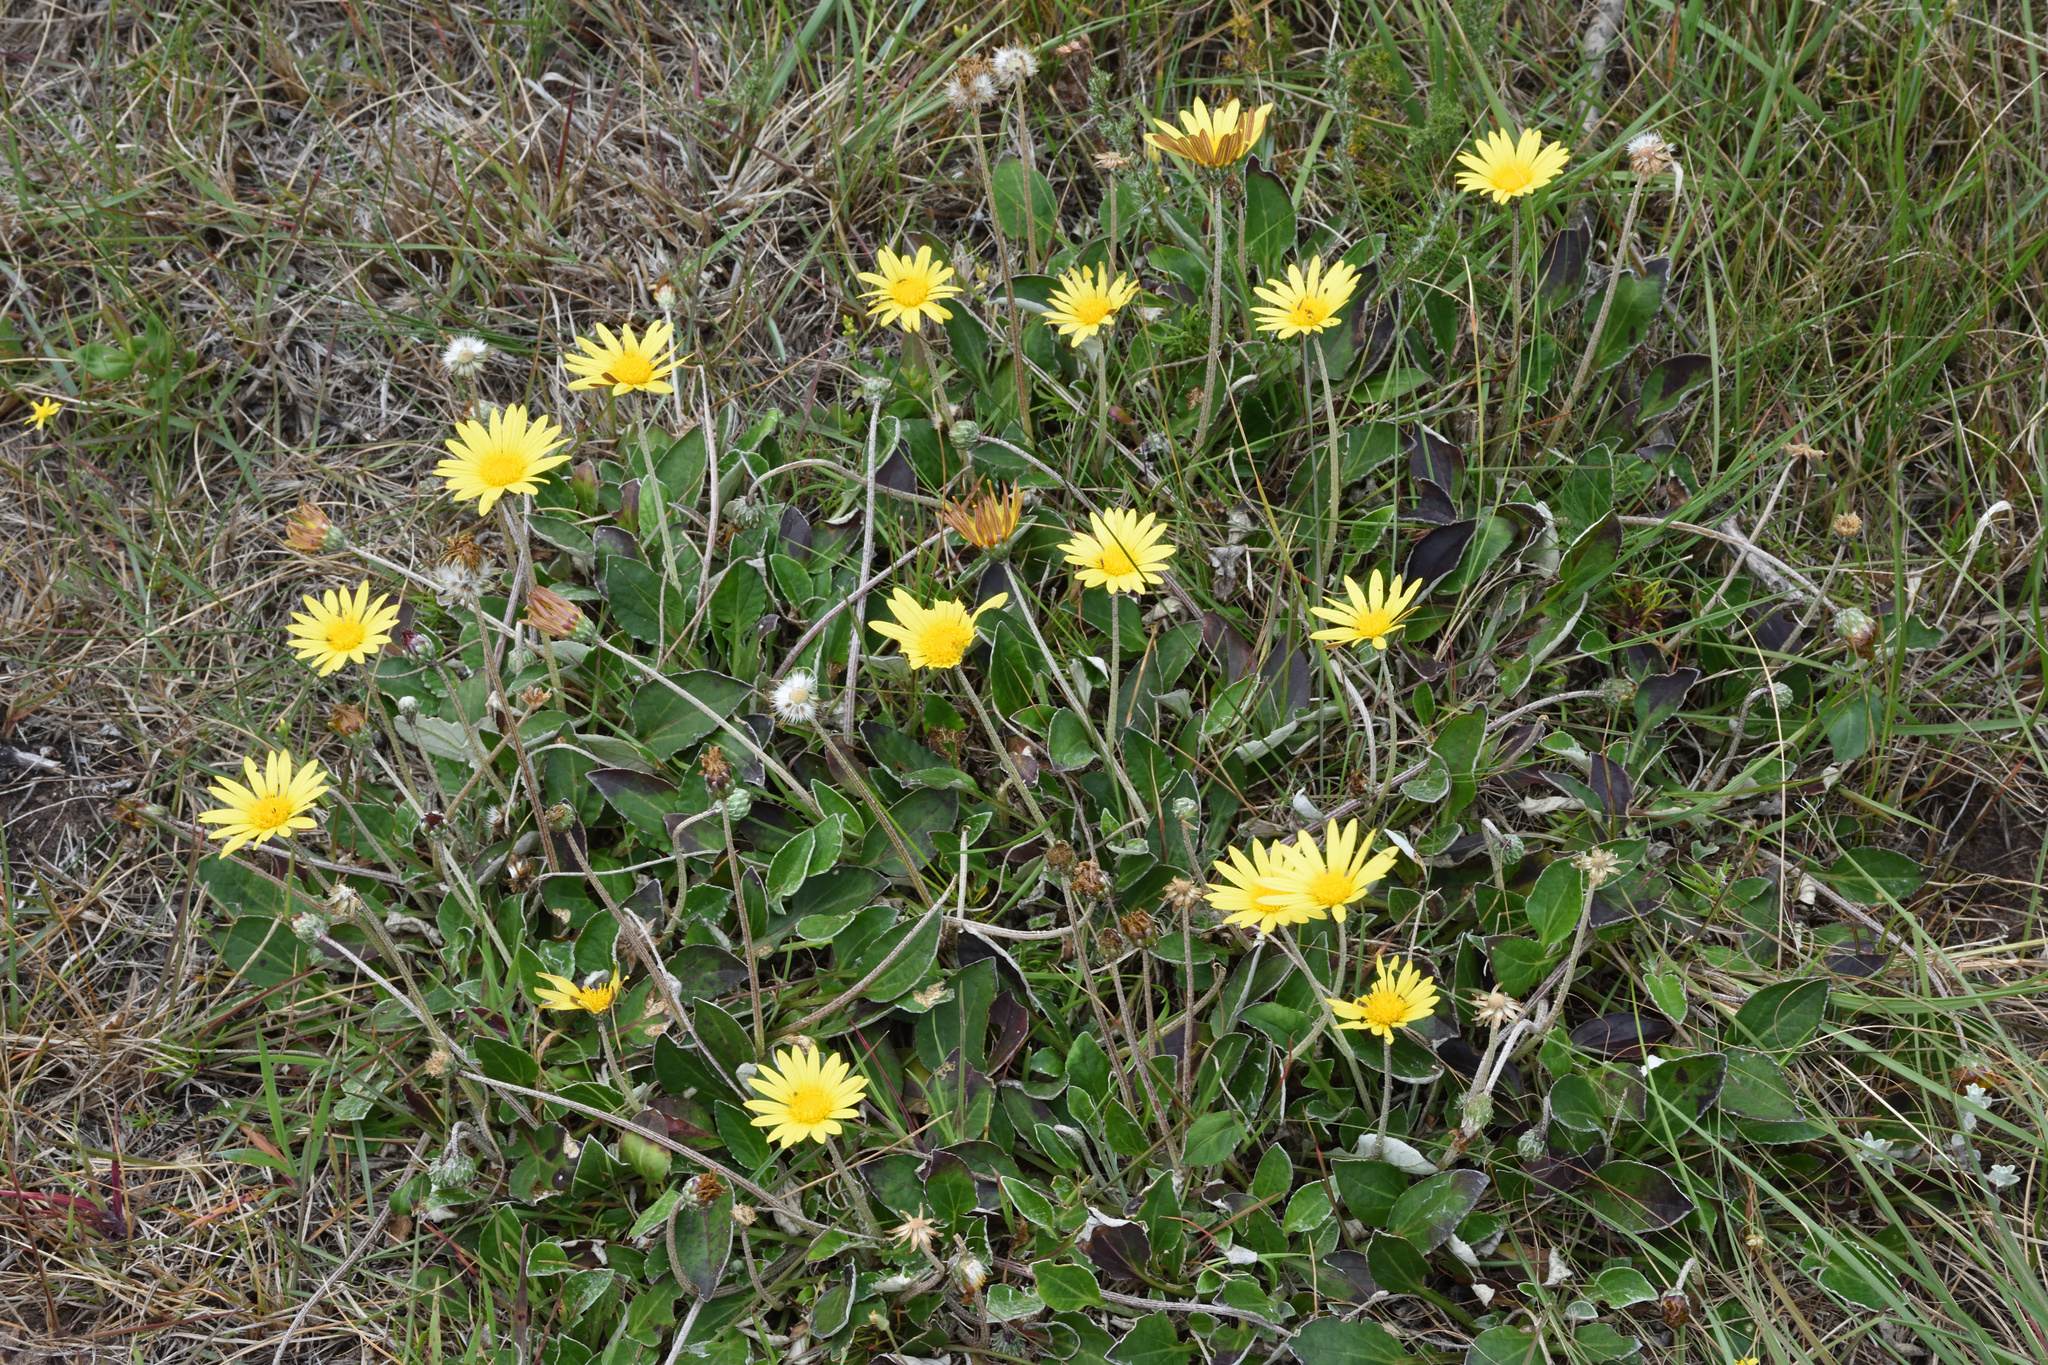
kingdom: Plantae
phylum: Tracheophyta
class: Magnoliopsida
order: Asterales
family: Asteraceae
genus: Haplocarpha
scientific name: Haplocarpha lyrata
